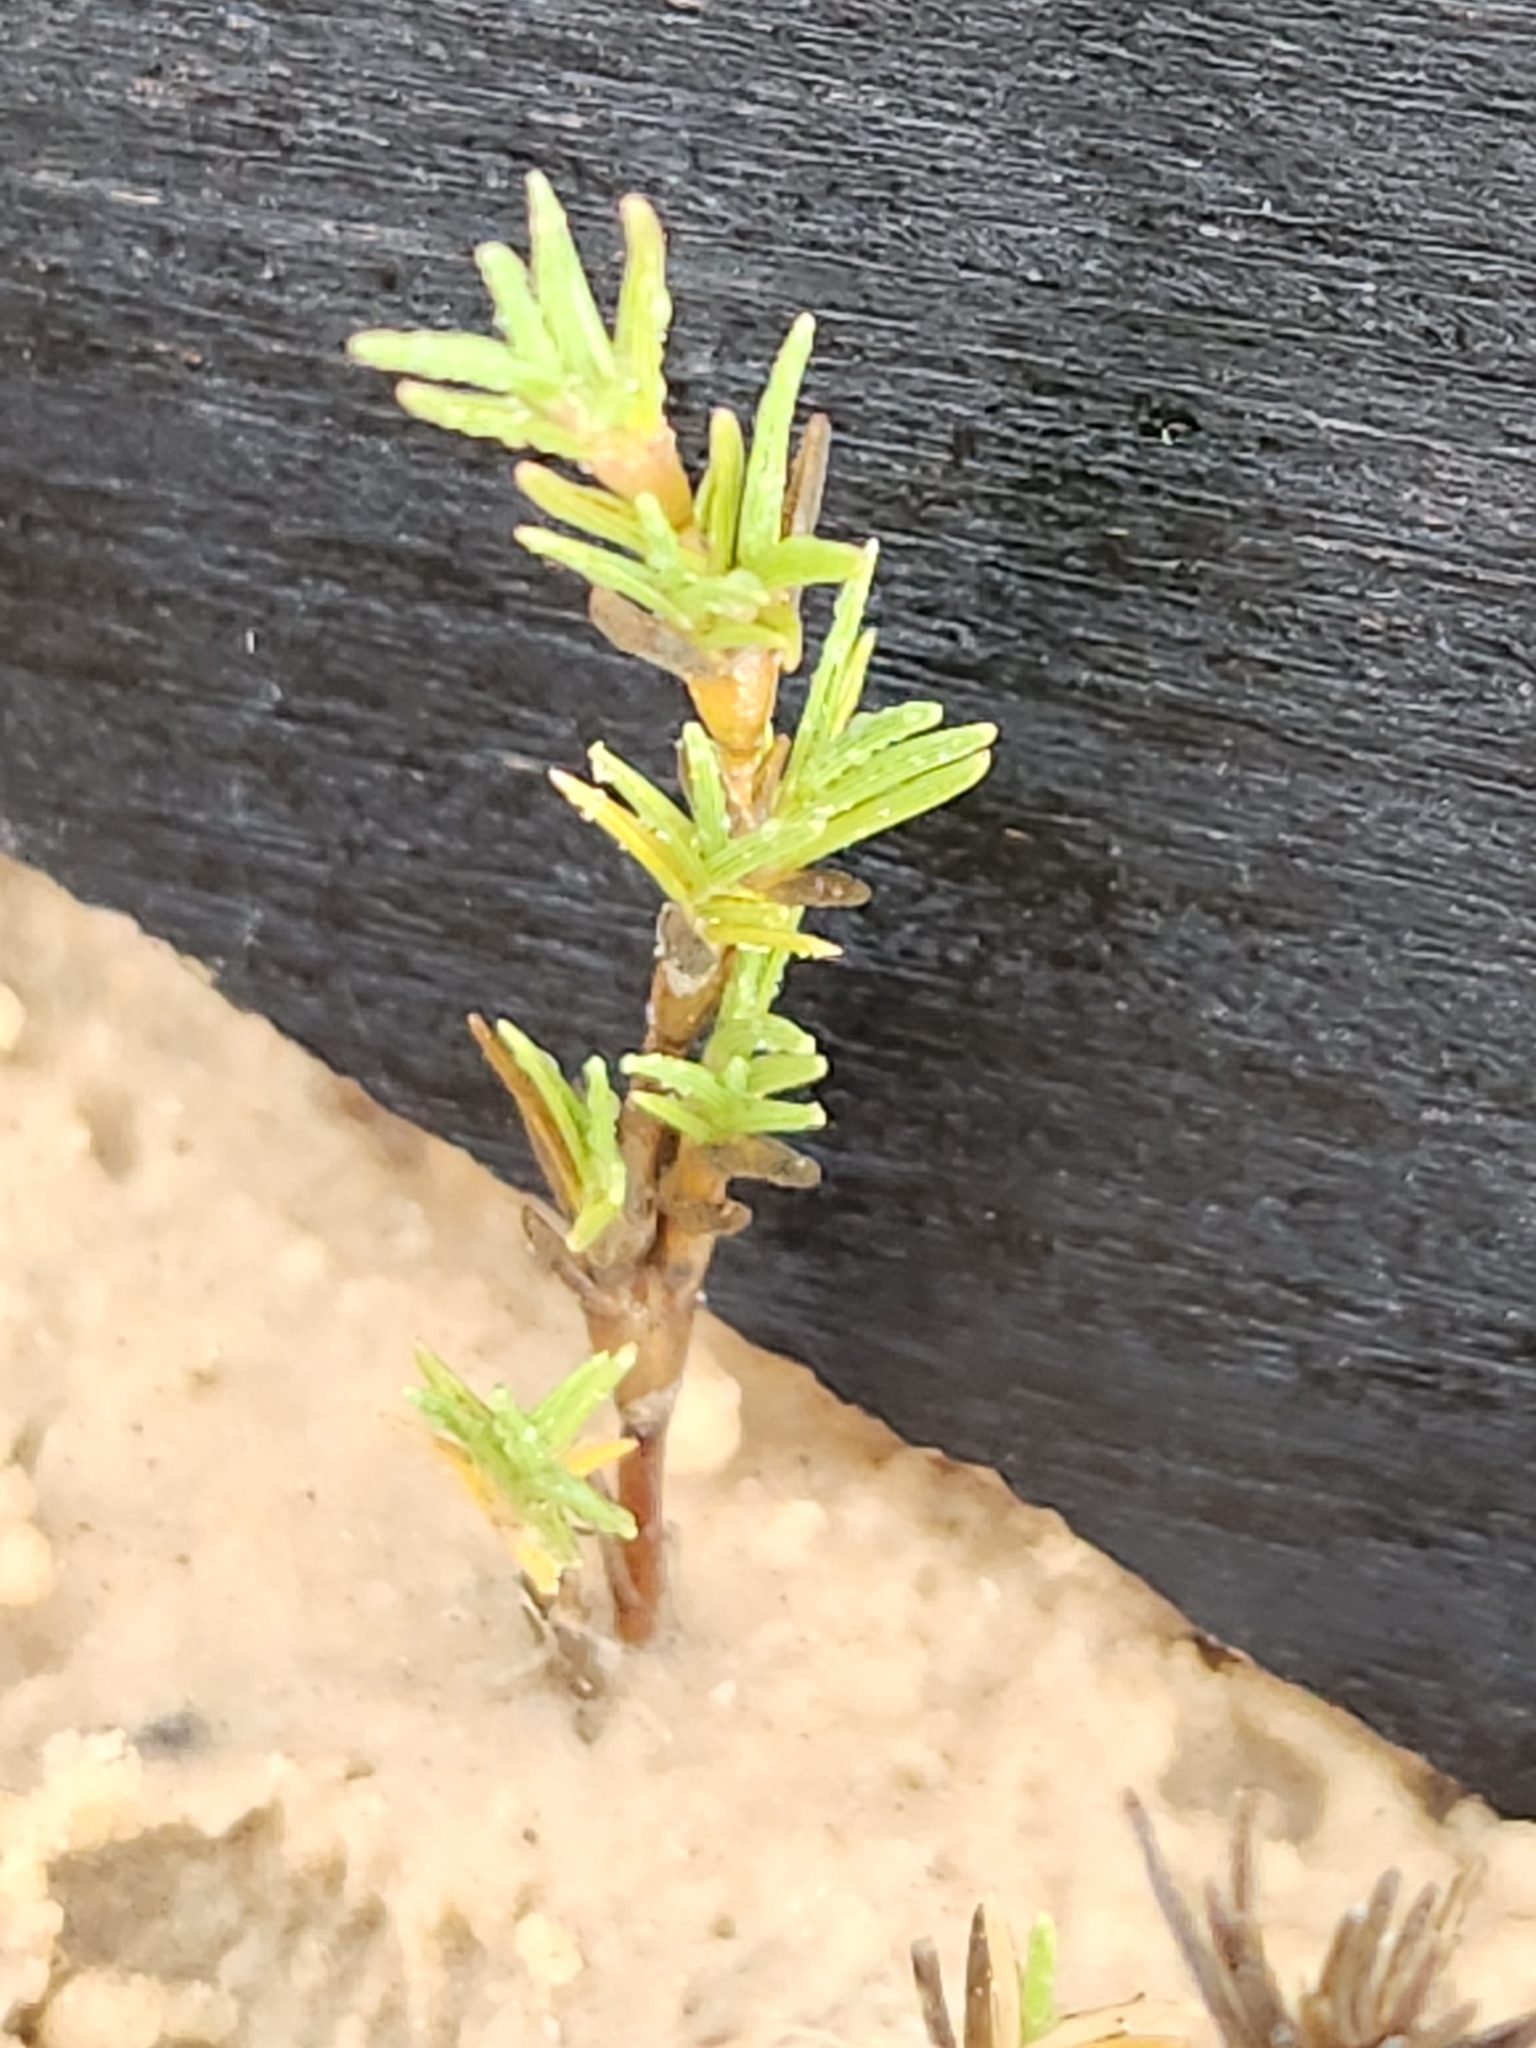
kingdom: Plantae
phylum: Tracheophyta
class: Liliopsida
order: Poales
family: Poaceae
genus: Distichlis
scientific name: Distichlis littoralis
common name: Shore grass
